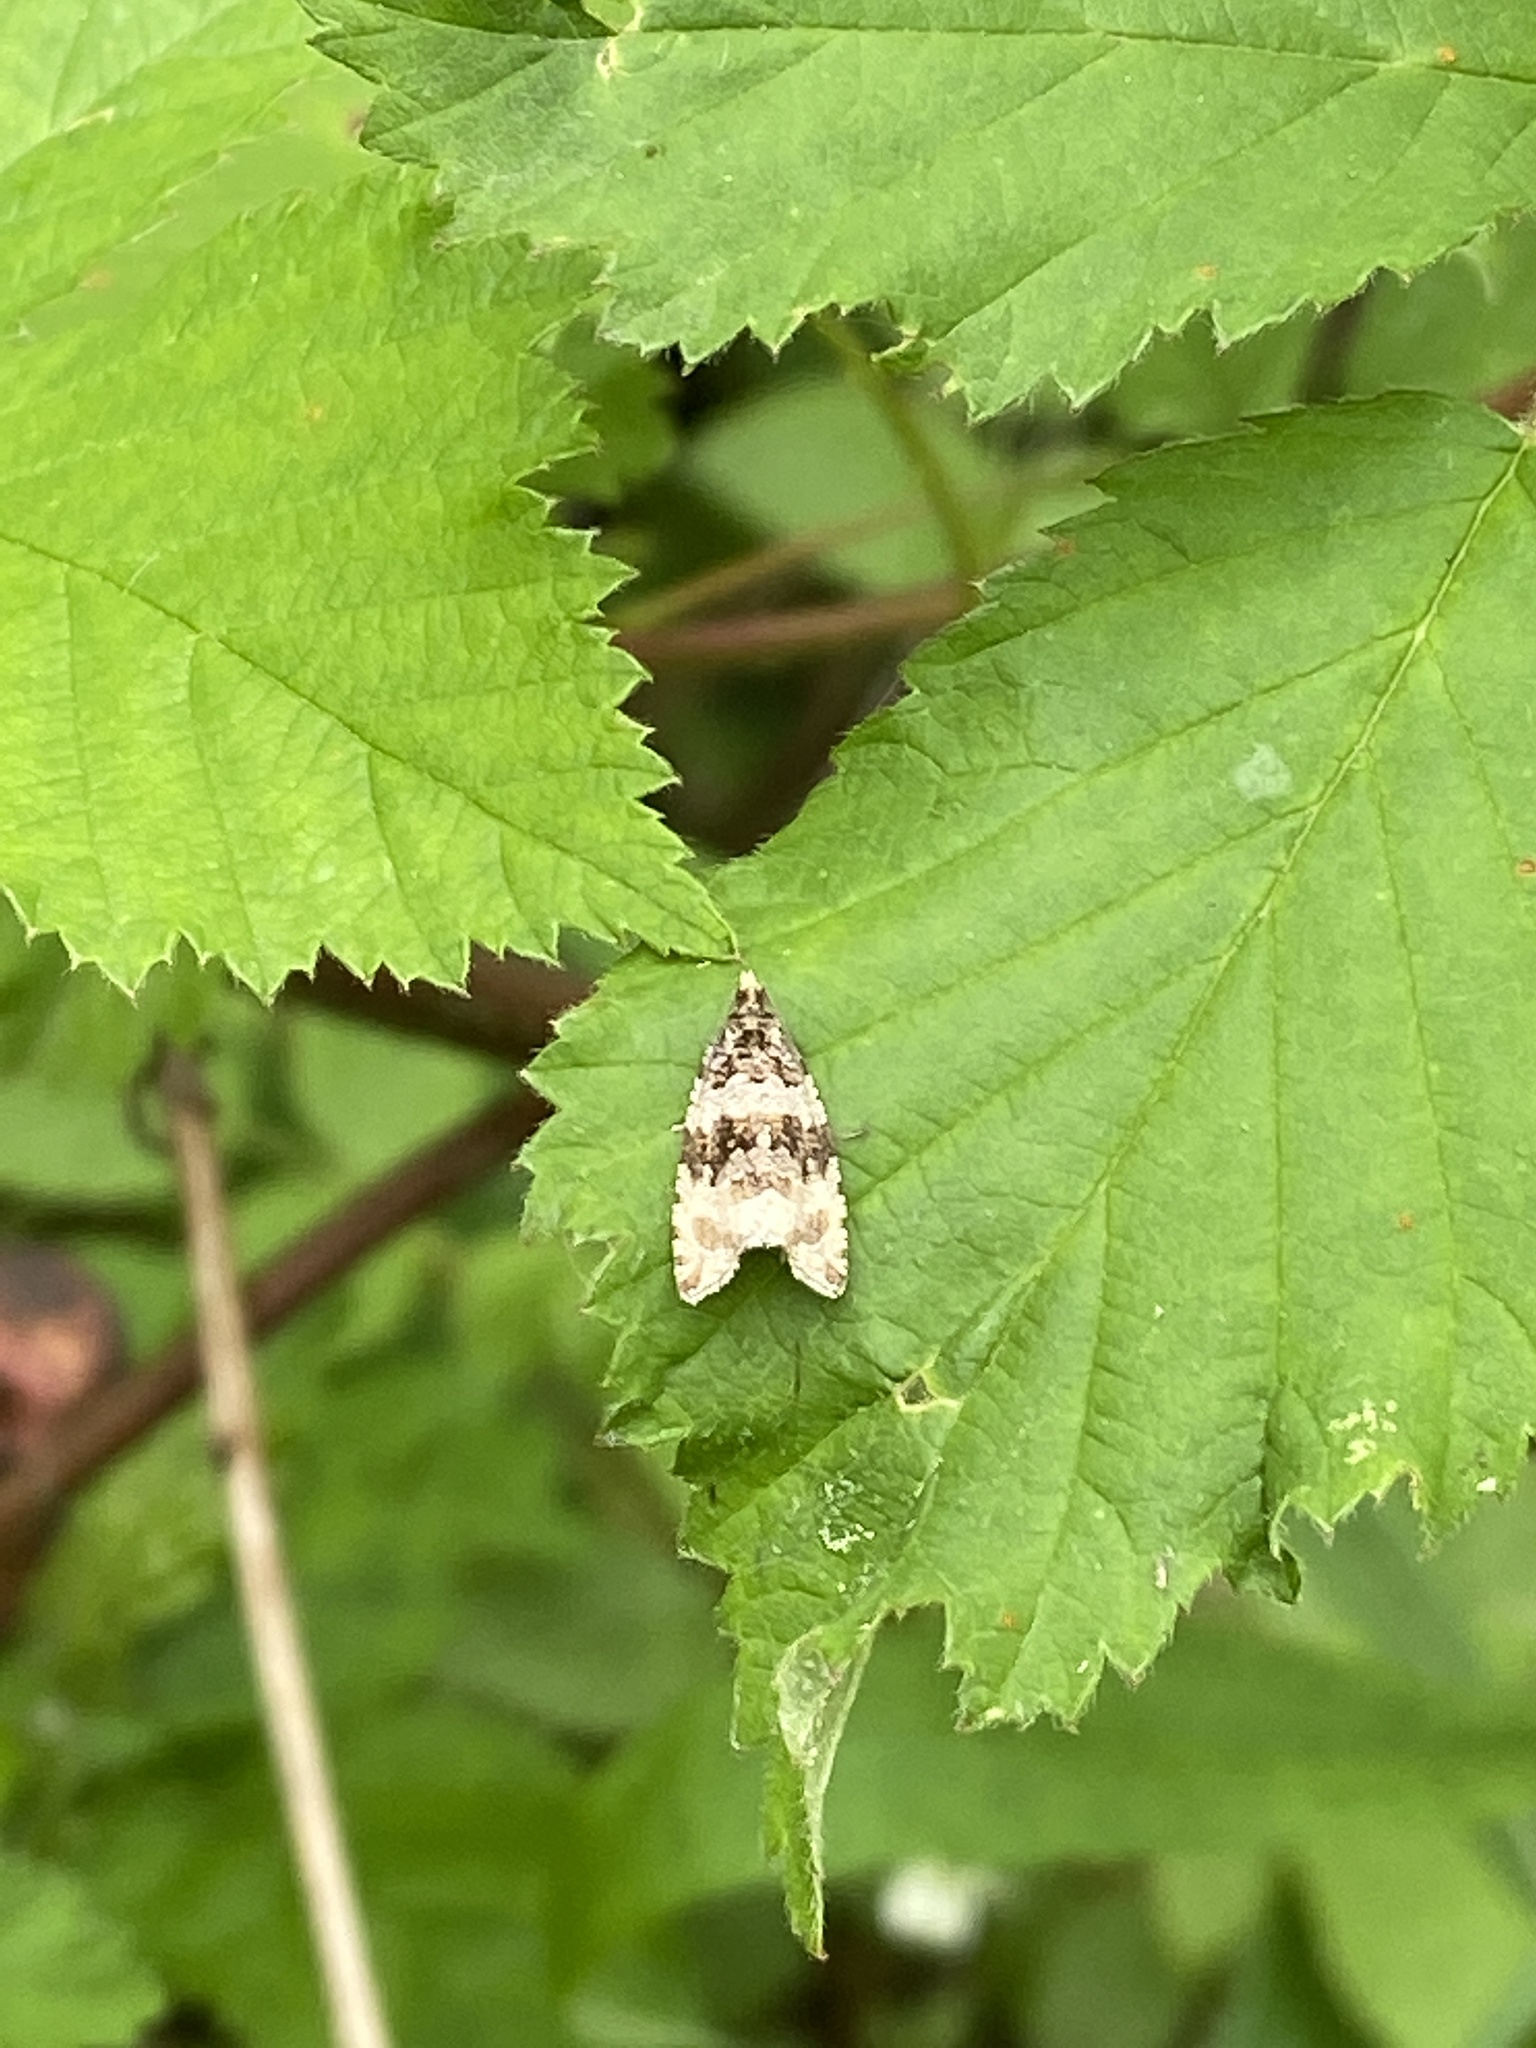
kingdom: Animalia
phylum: Arthropoda
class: Insecta
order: Lepidoptera
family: Tortricidae
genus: Syricoris
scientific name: Syricoris lacunana
